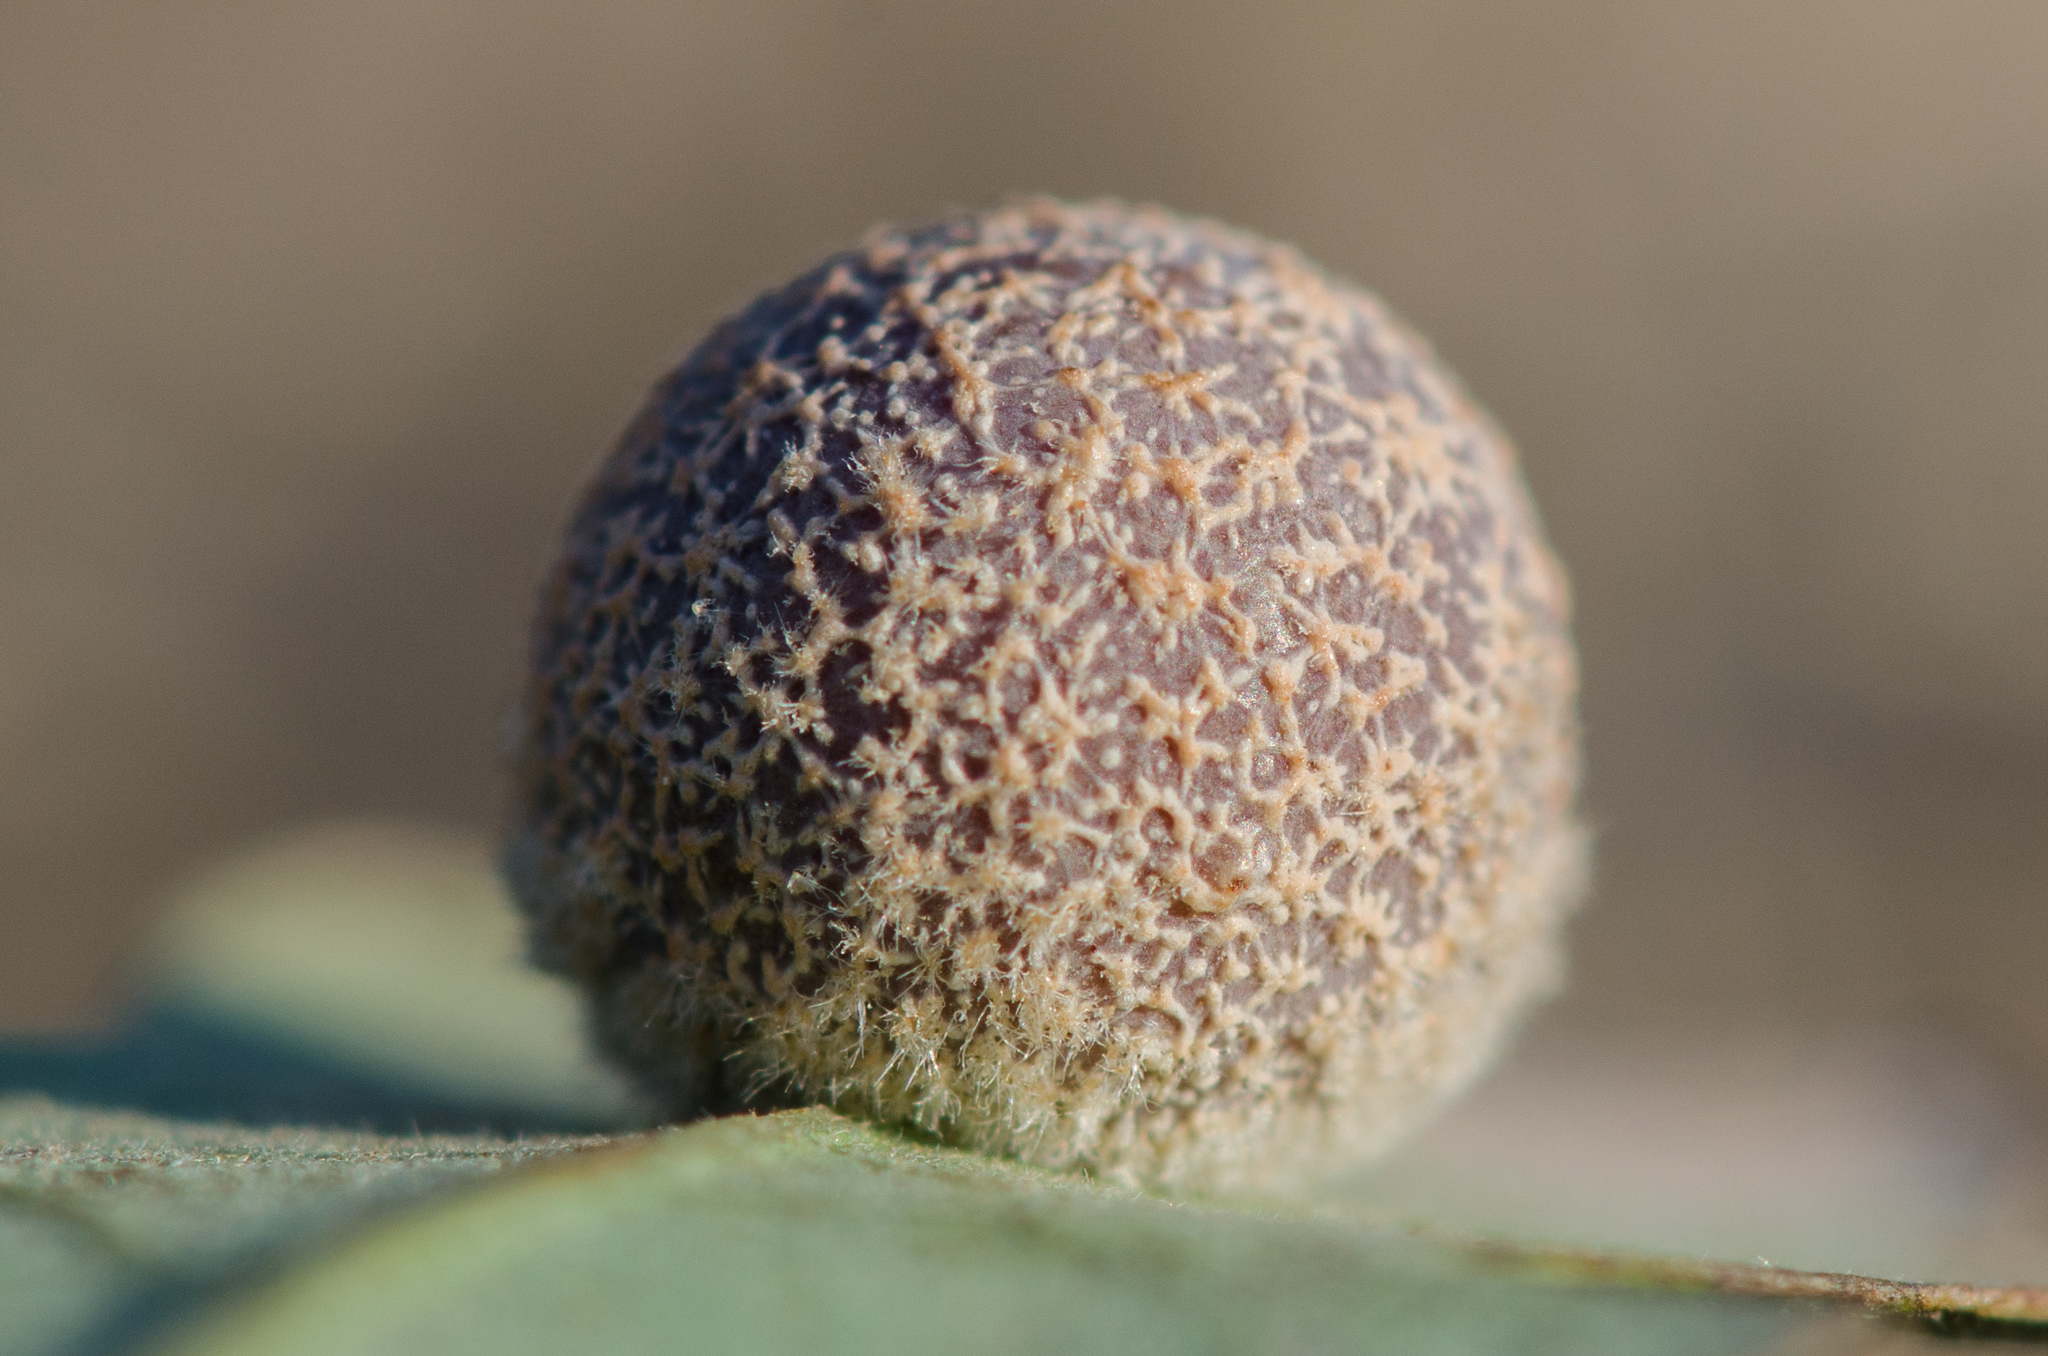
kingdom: Animalia
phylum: Arthropoda
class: Insecta
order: Hymenoptera
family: Cynipidae
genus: Cynips
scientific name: Cynips
